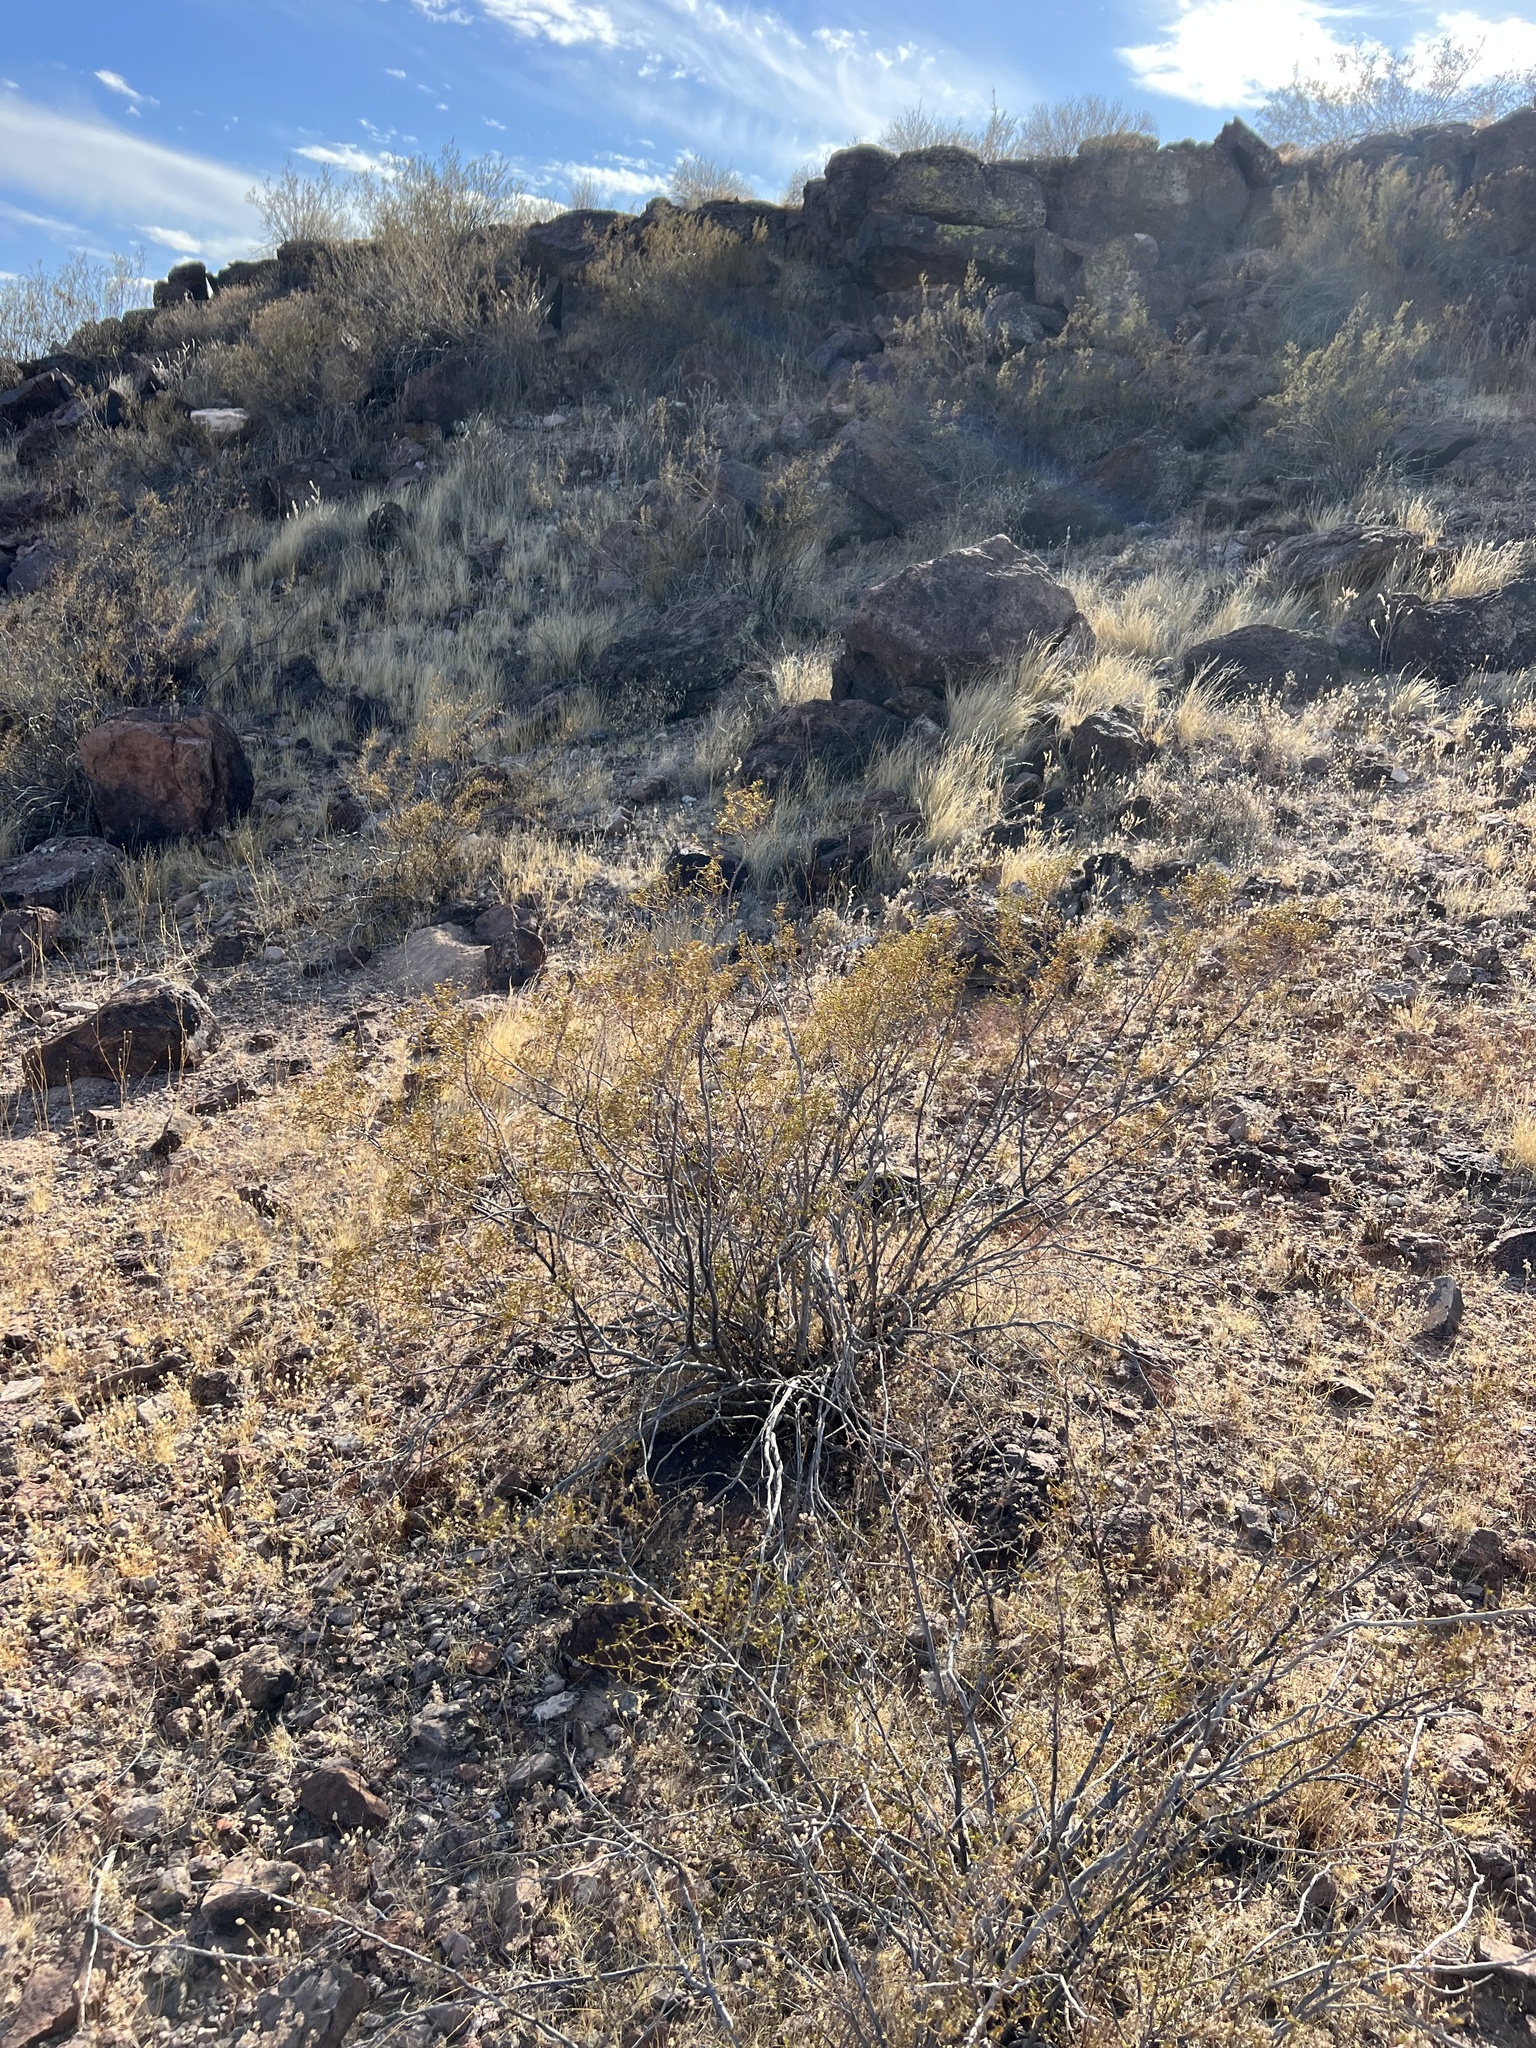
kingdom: Plantae
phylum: Tracheophyta
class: Magnoliopsida
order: Zygophyllales
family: Zygophyllaceae
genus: Larrea
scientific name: Larrea tridentata
